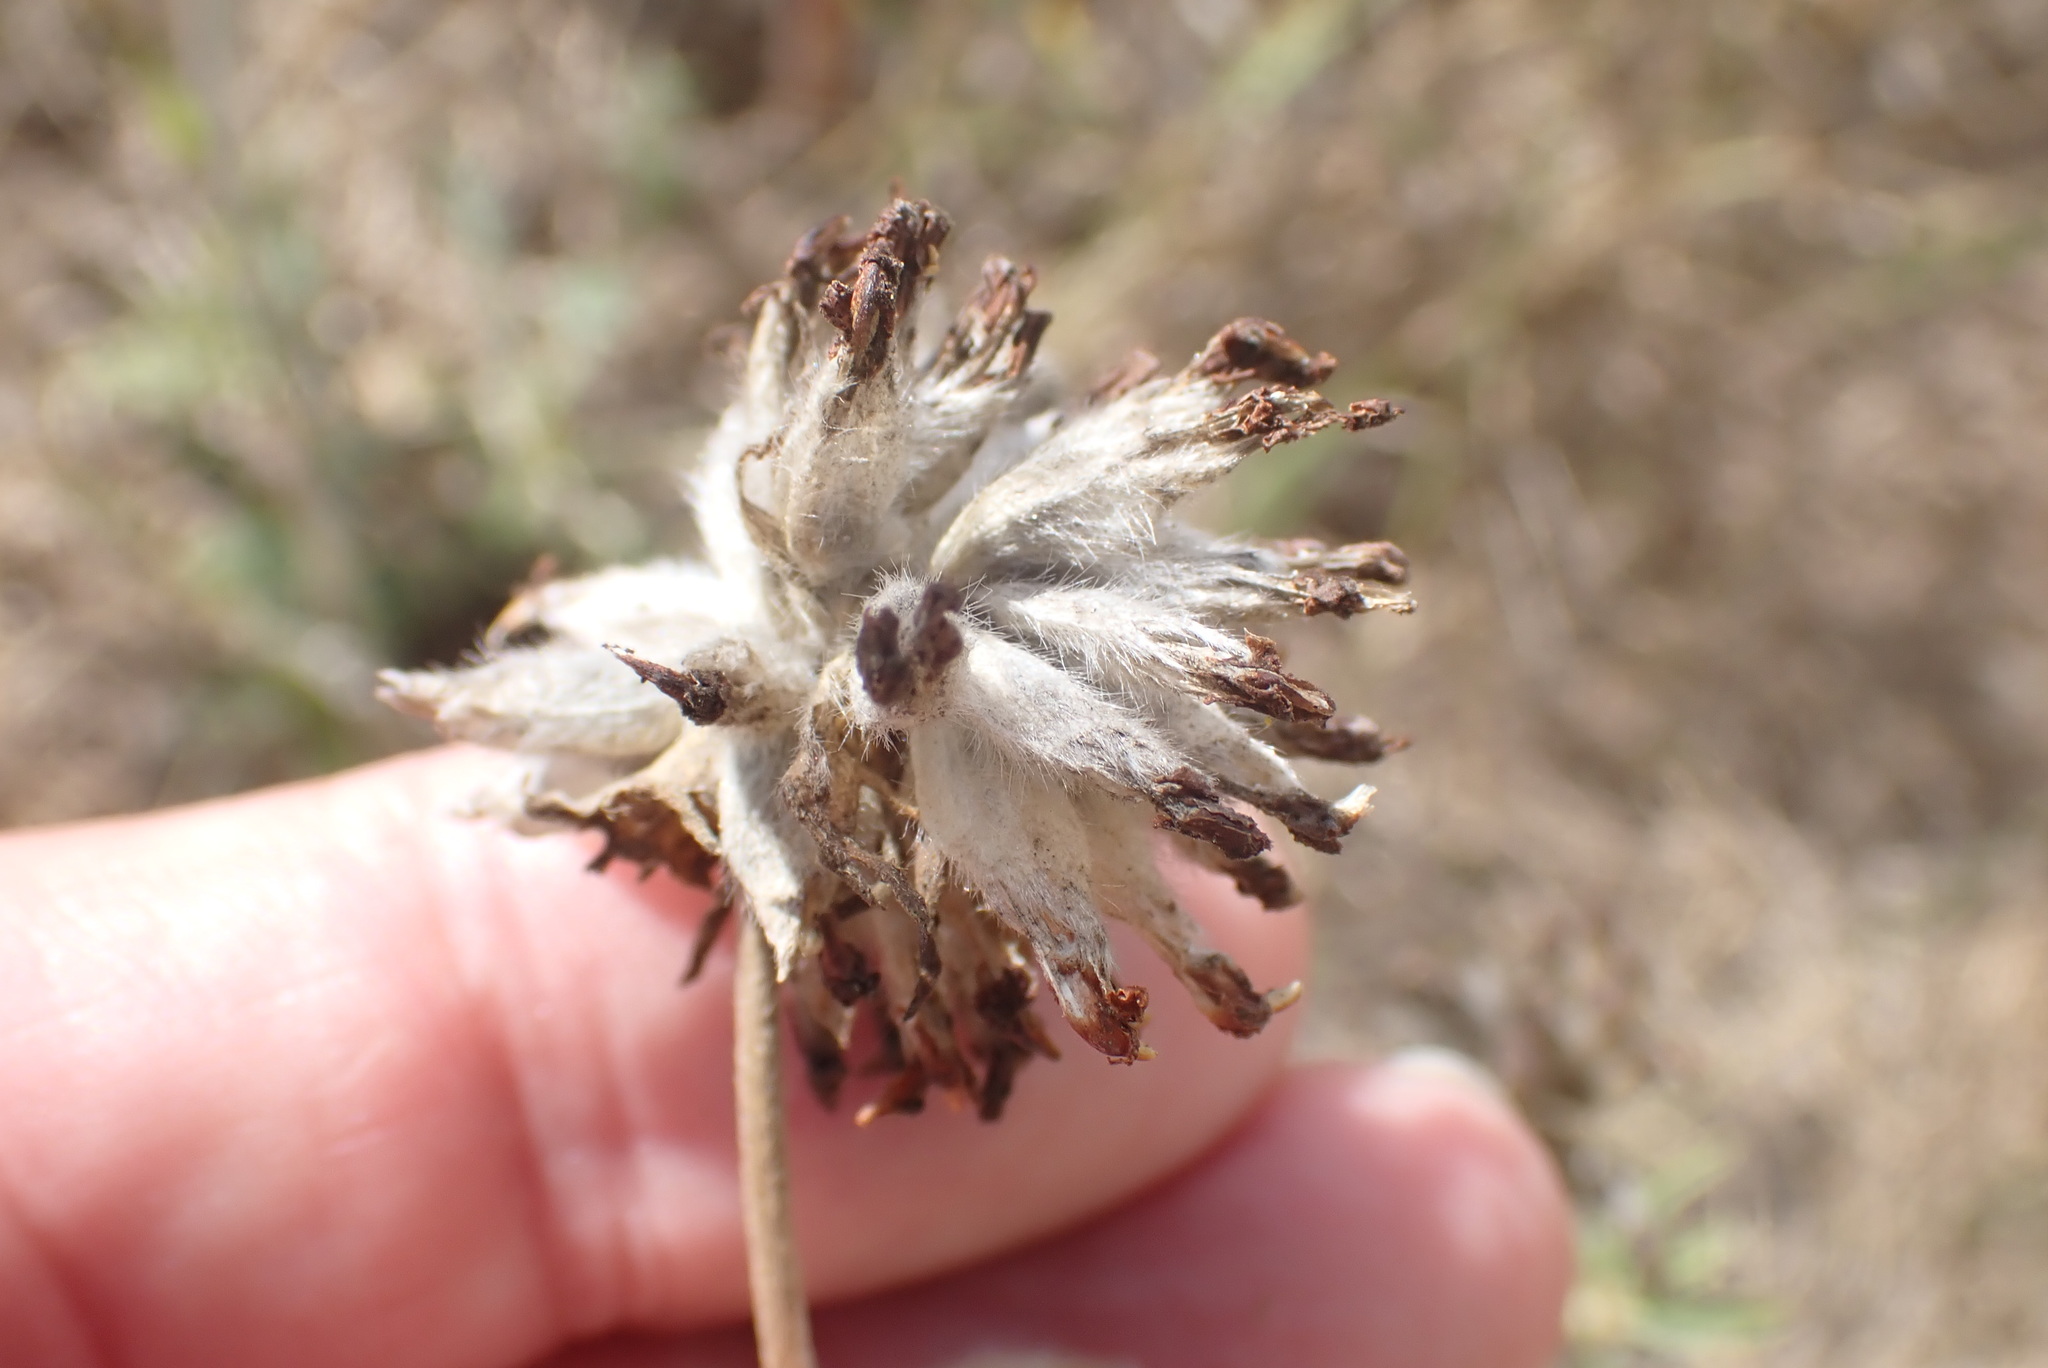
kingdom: Plantae
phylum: Tracheophyta
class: Magnoliopsida
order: Fabales
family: Fabaceae
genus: Anthyllis
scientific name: Anthyllis vulneraria
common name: Kidney vetch
